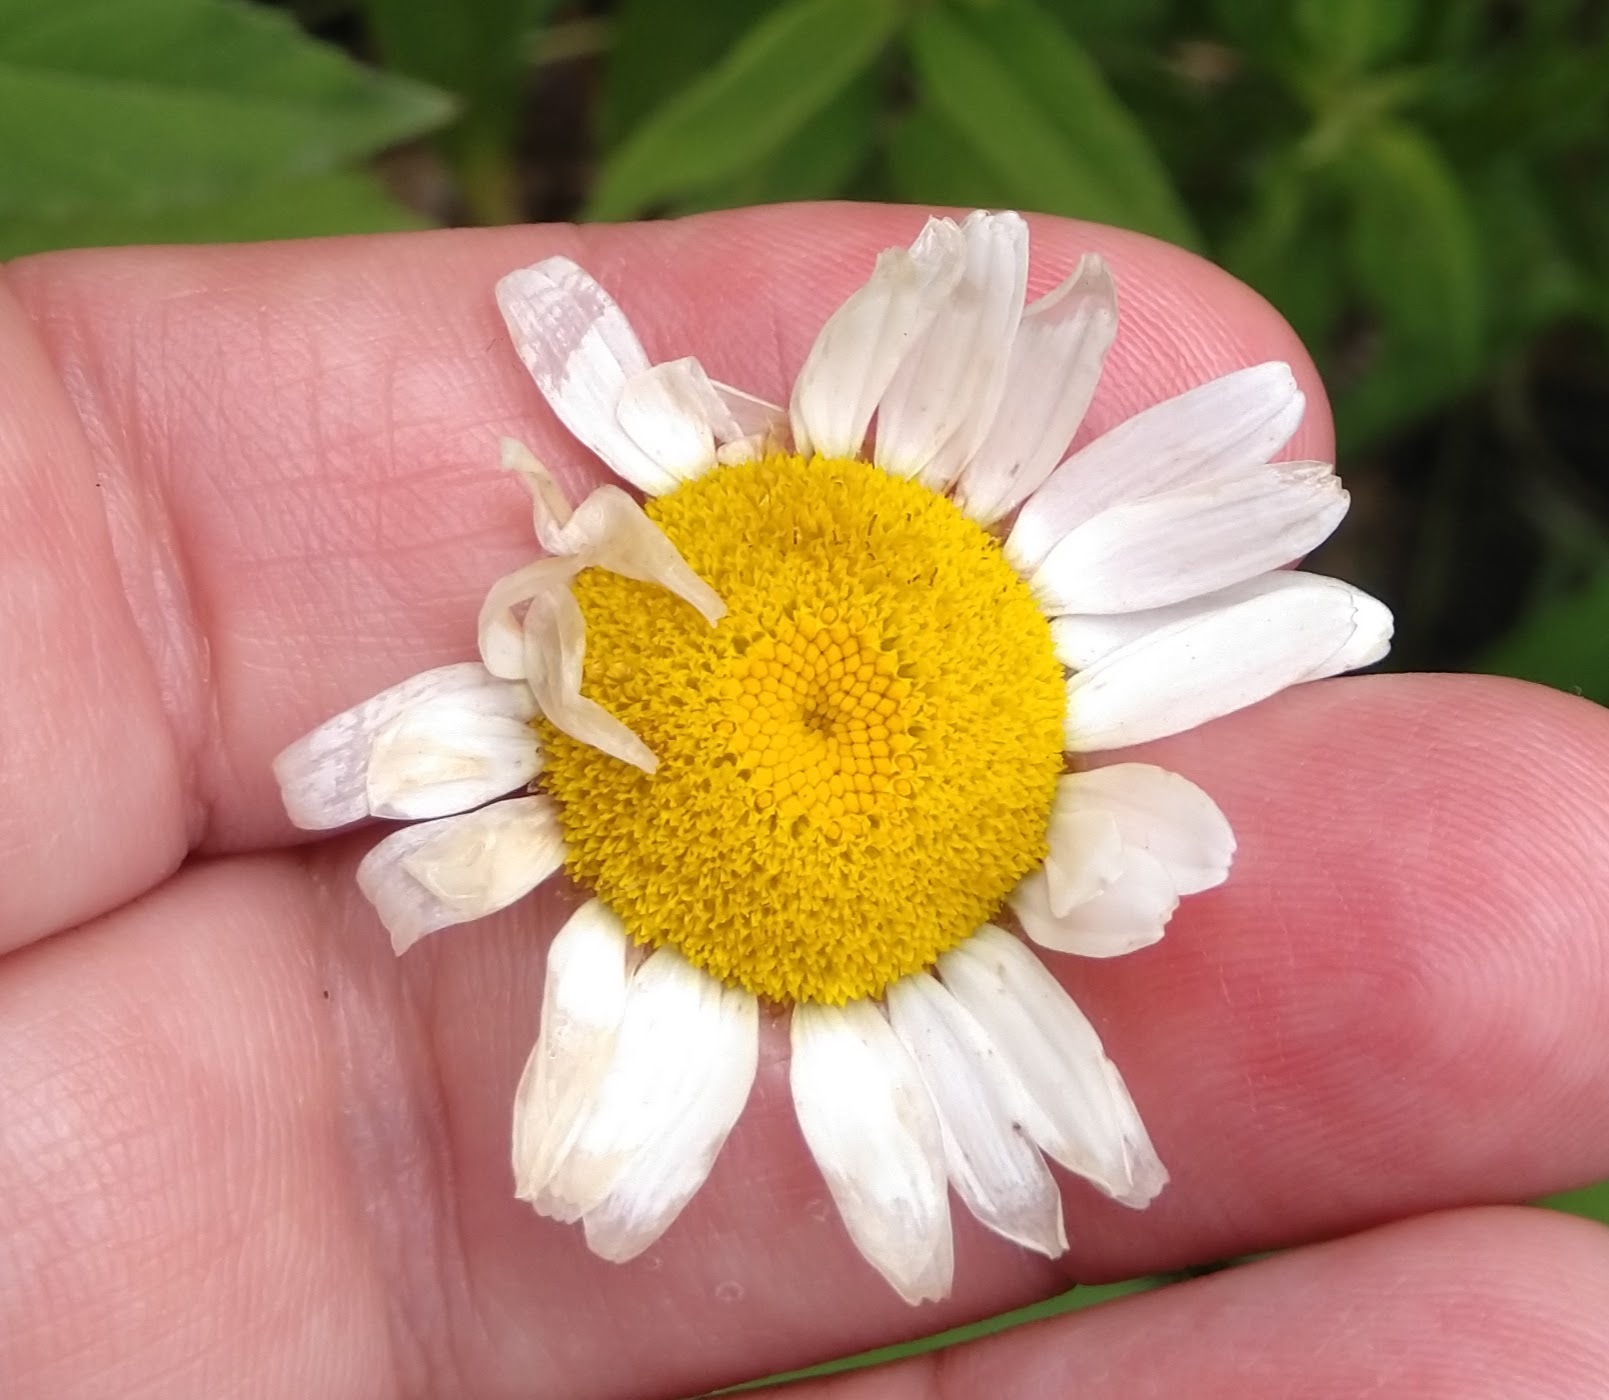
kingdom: Plantae
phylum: Tracheophyta
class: Magnoliopsida
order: Asterales
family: Asteraceae
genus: Leucanthemum
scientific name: Leucanthemum vulgare
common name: Oxeye daisy
